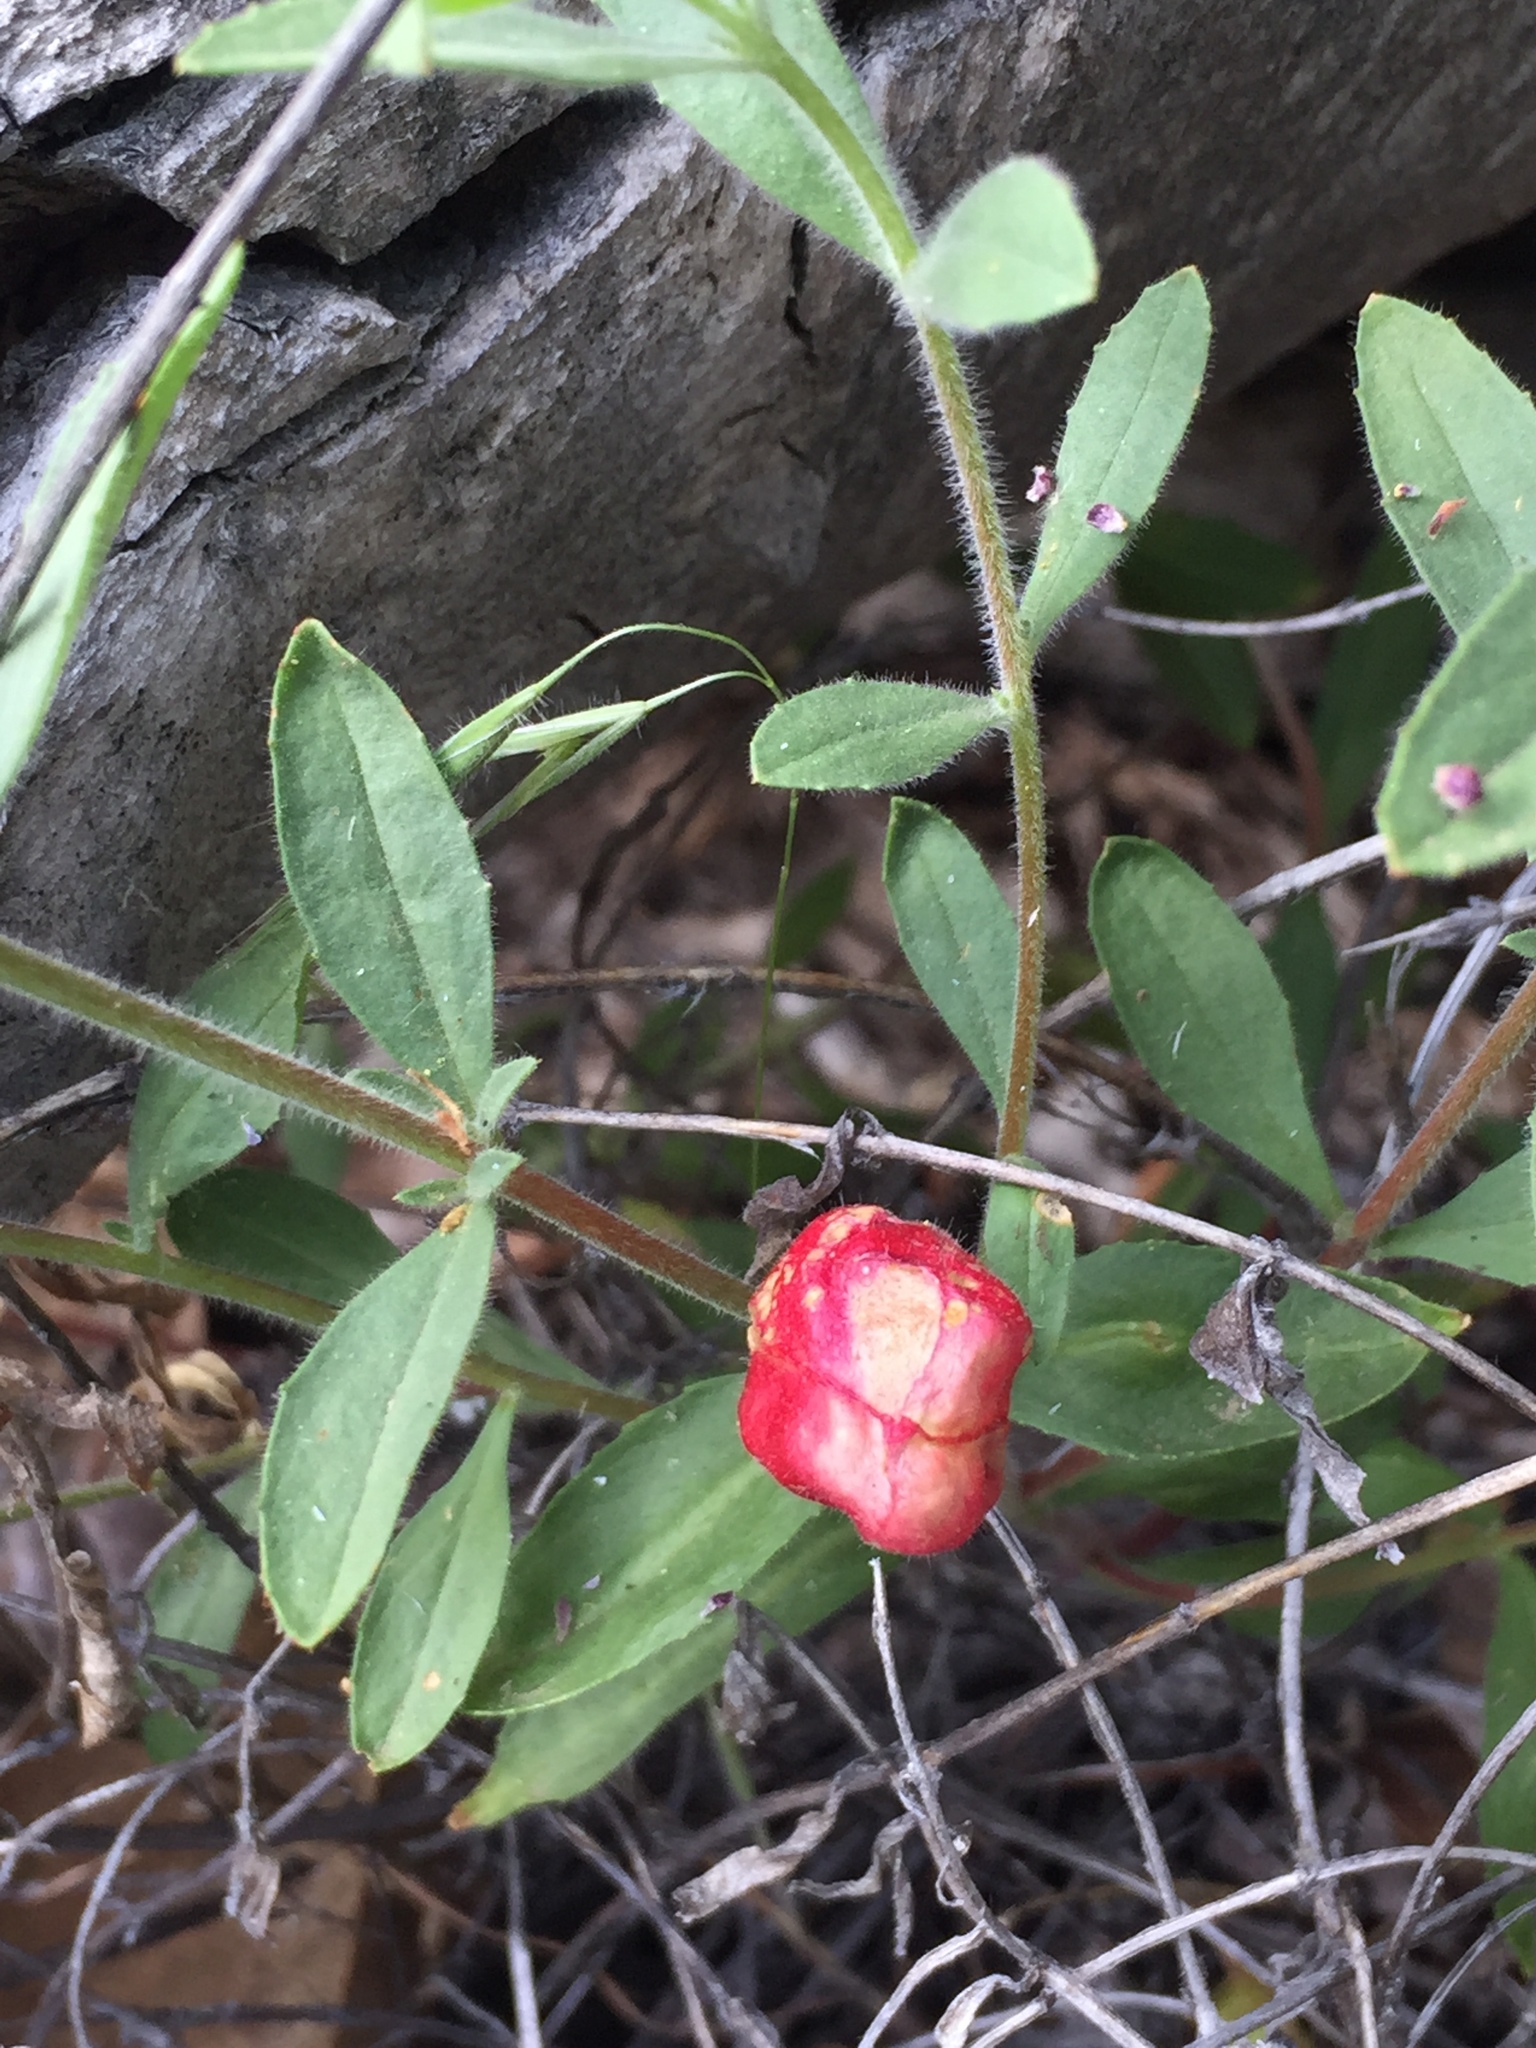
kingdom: Plantae
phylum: Tracheophyta
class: Magnoliopsida
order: Caryophyllales
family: Caryophyllaceae
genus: Silene
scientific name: Silene laciniata
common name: Indian-pink
